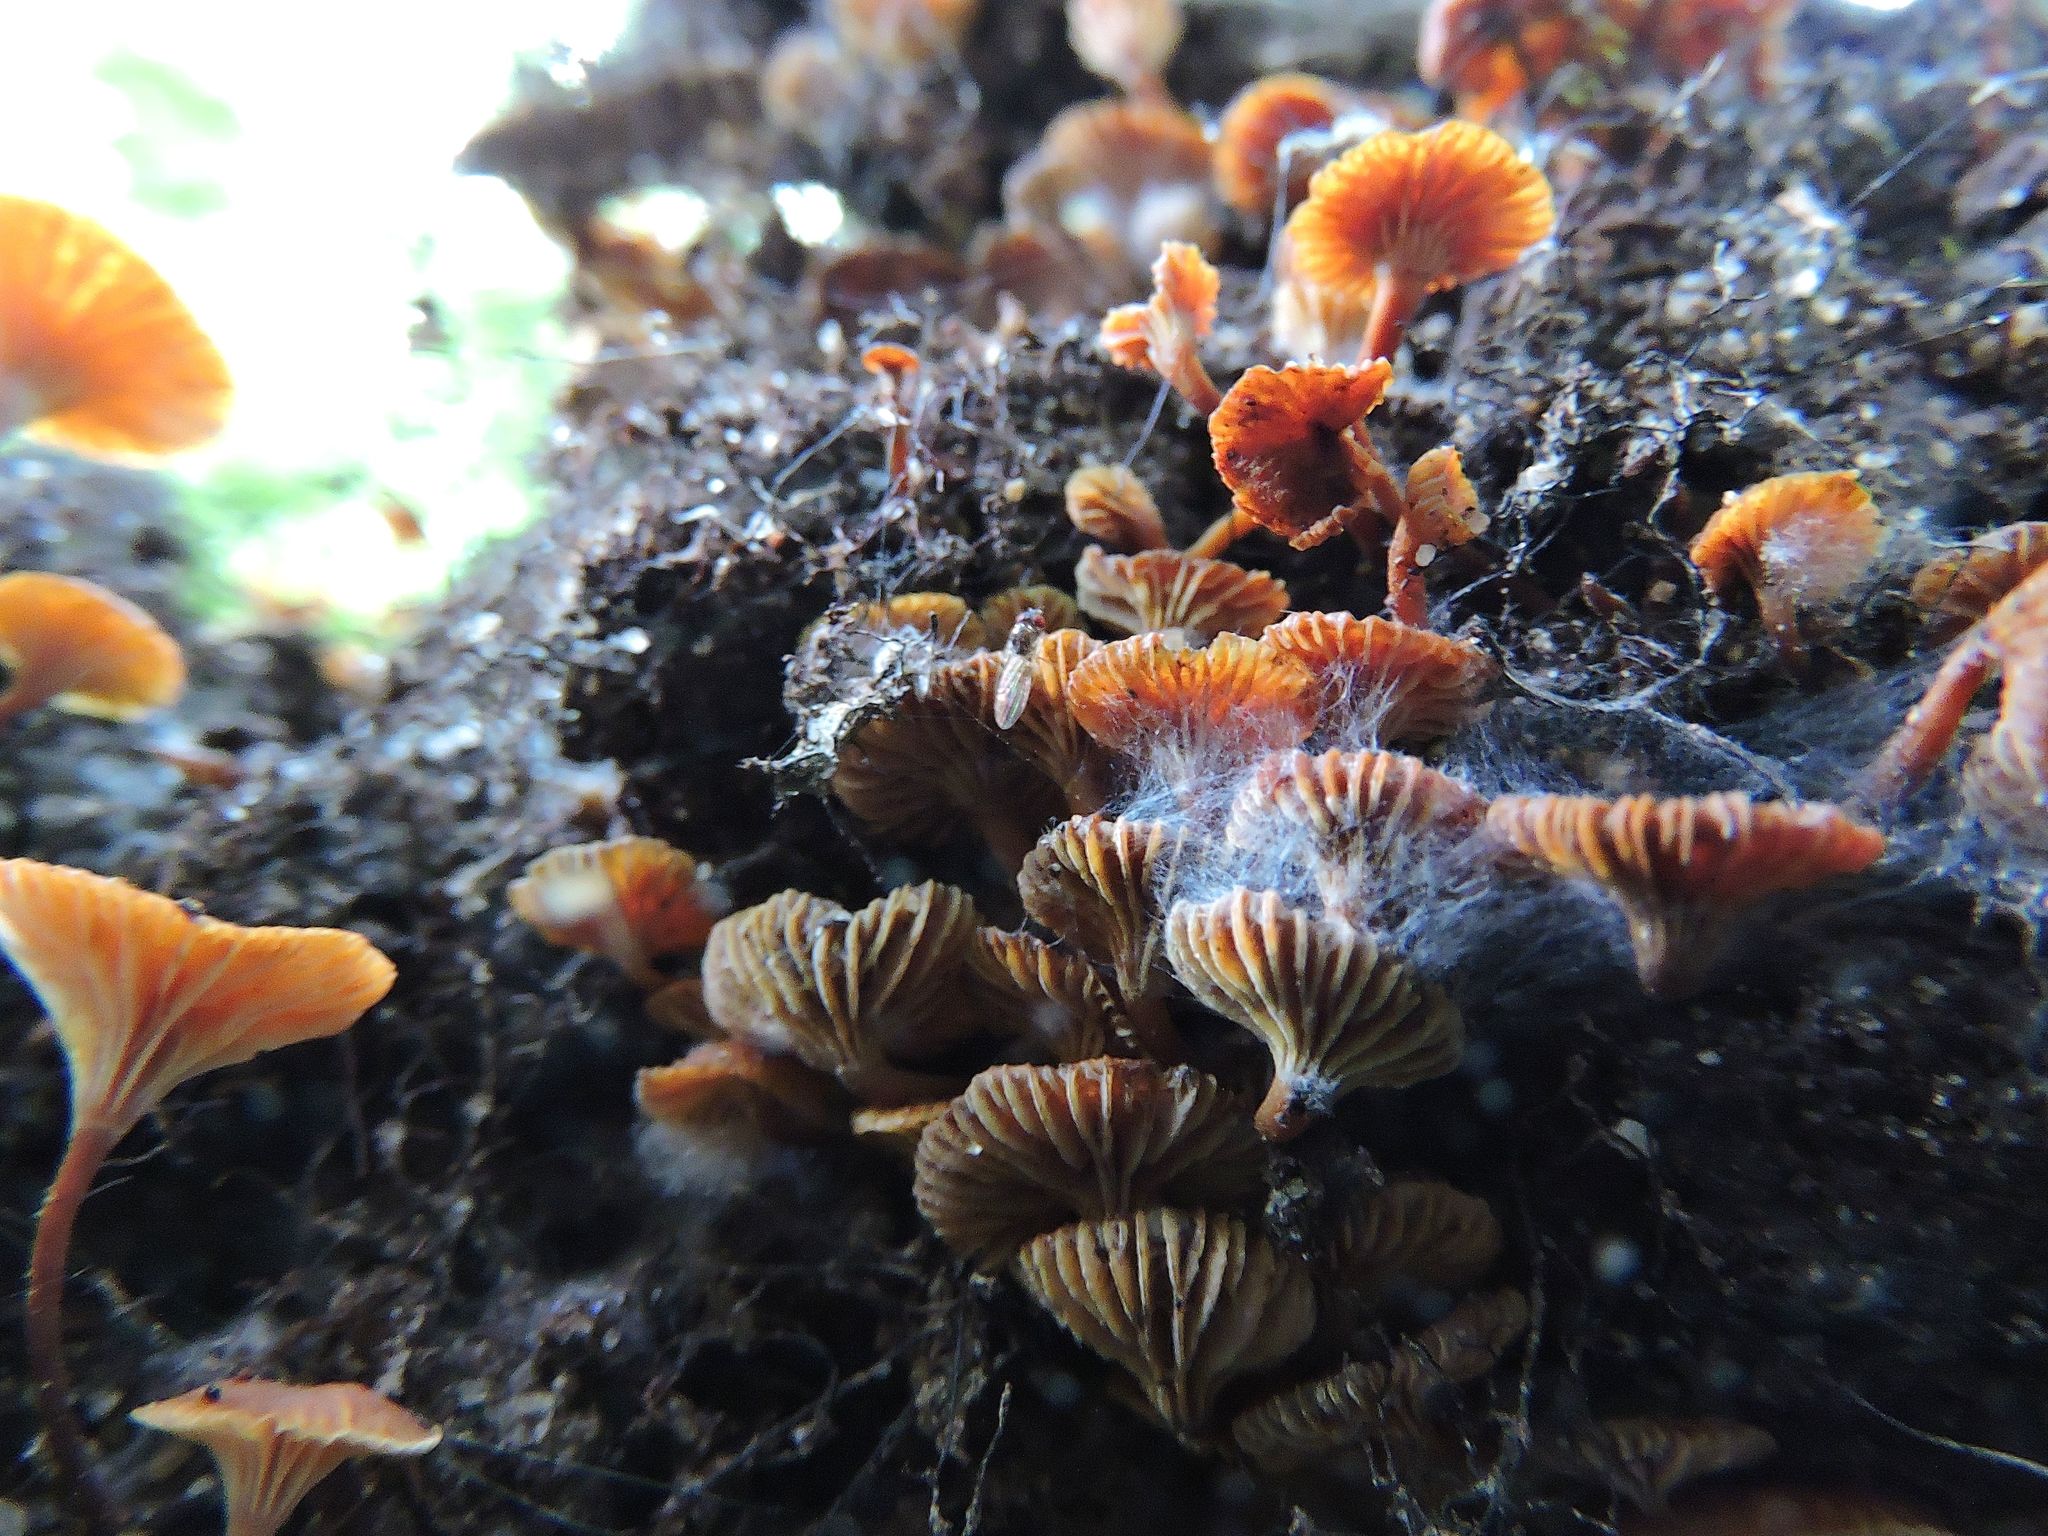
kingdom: Fungi
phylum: Basidiomycota
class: Agaricomycetes
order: Agaricales
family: Mycenaceae
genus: Xeromphalina
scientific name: Xeromphalina campanella
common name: Pinewood gingertail
